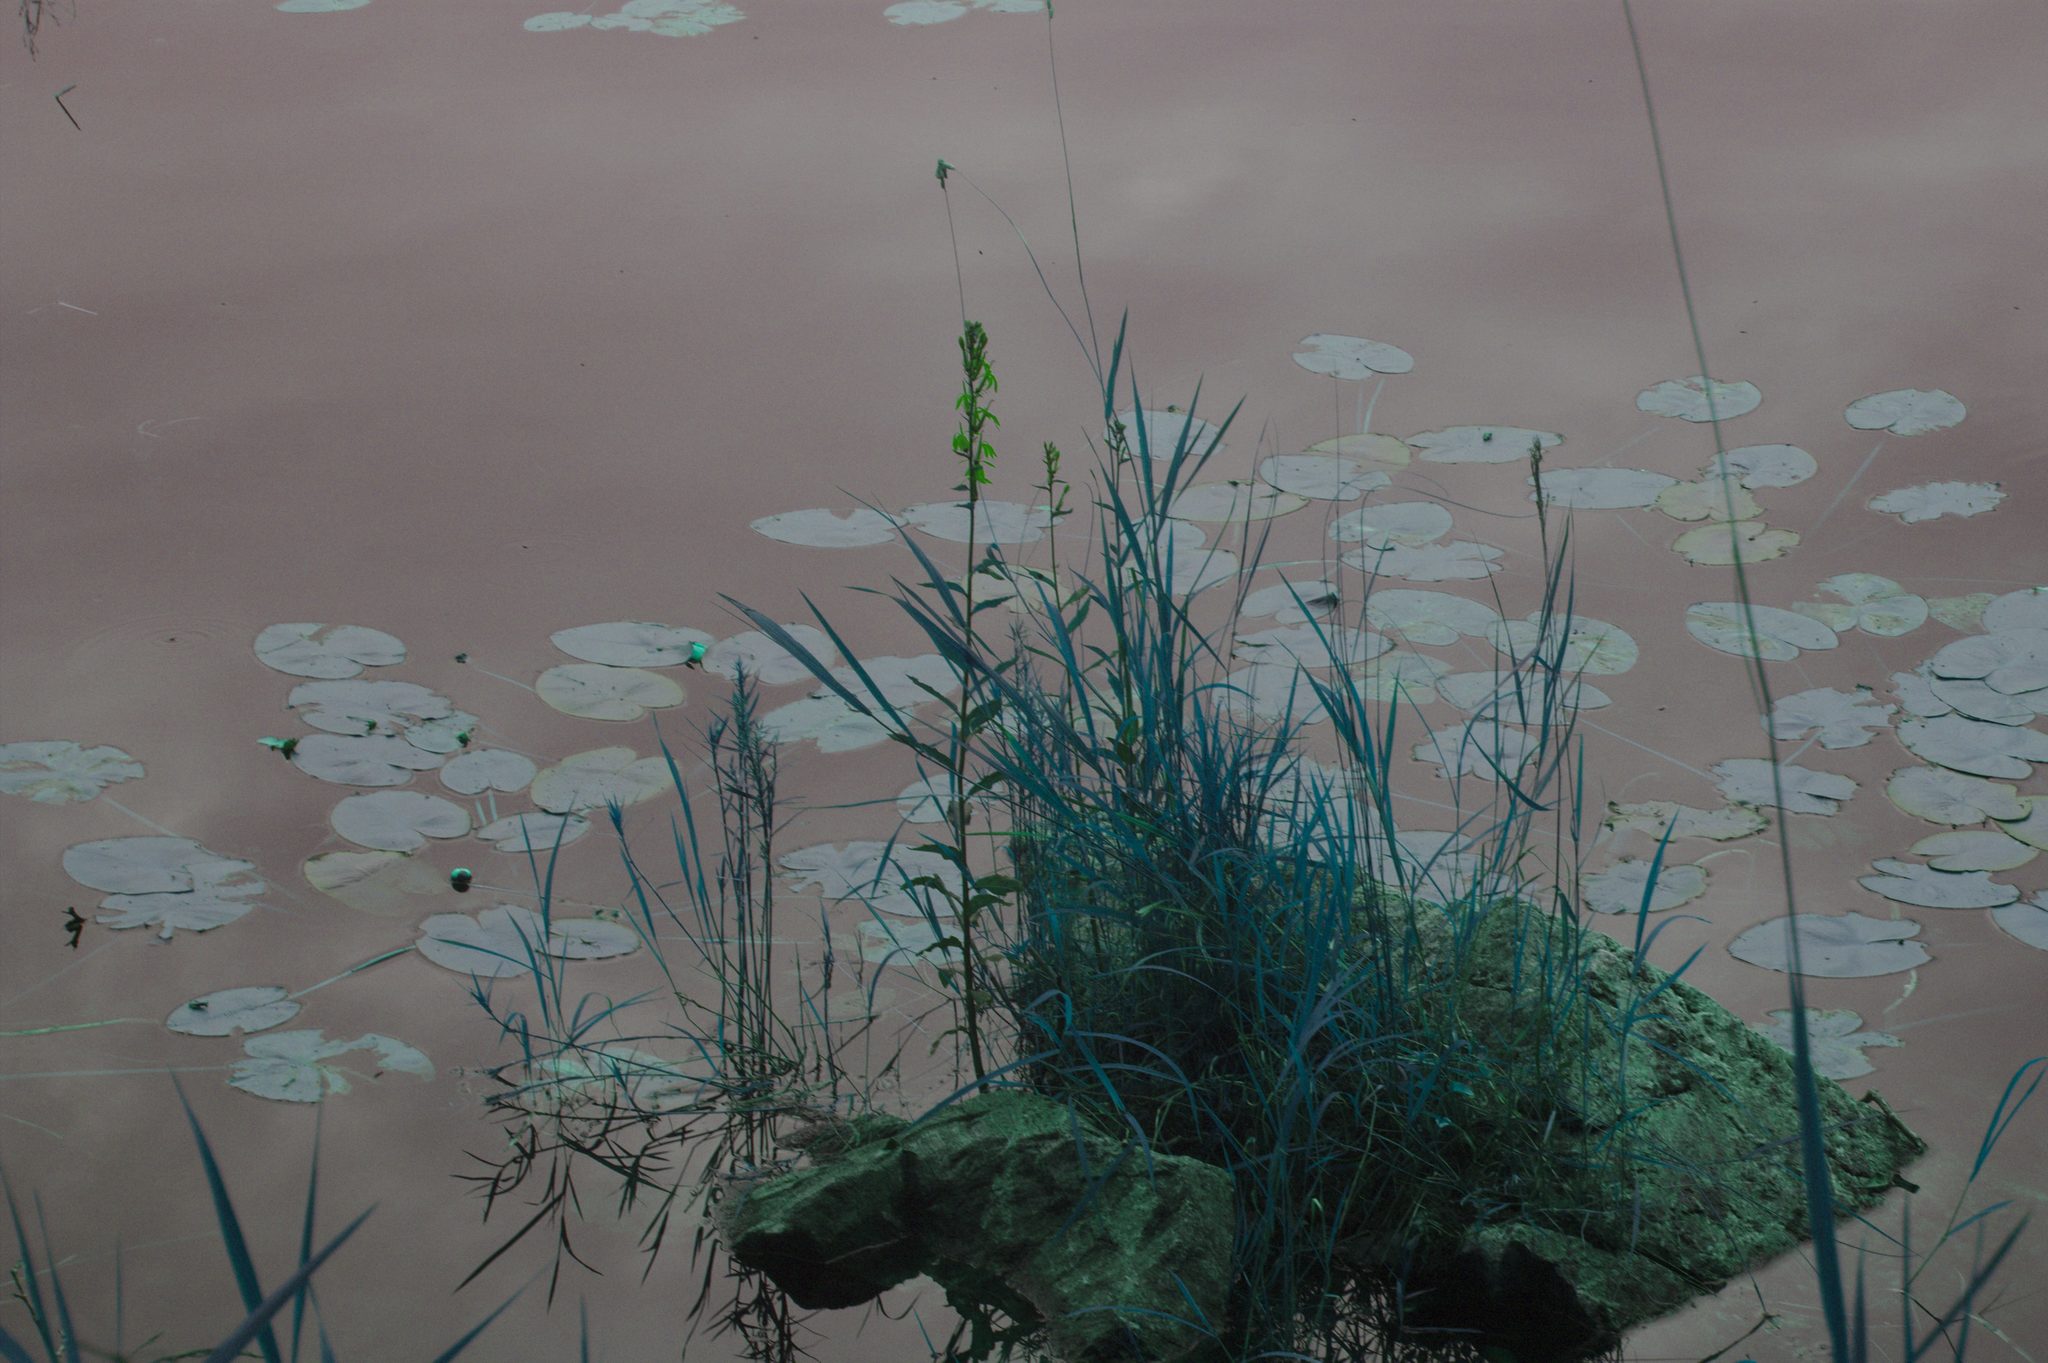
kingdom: Plantae
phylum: Tracheophyta
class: Magnoliopsida
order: Asterales
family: Campanulaceae
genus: Lobelia
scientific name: Lobelia cardinalis
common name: Cardinal flower
